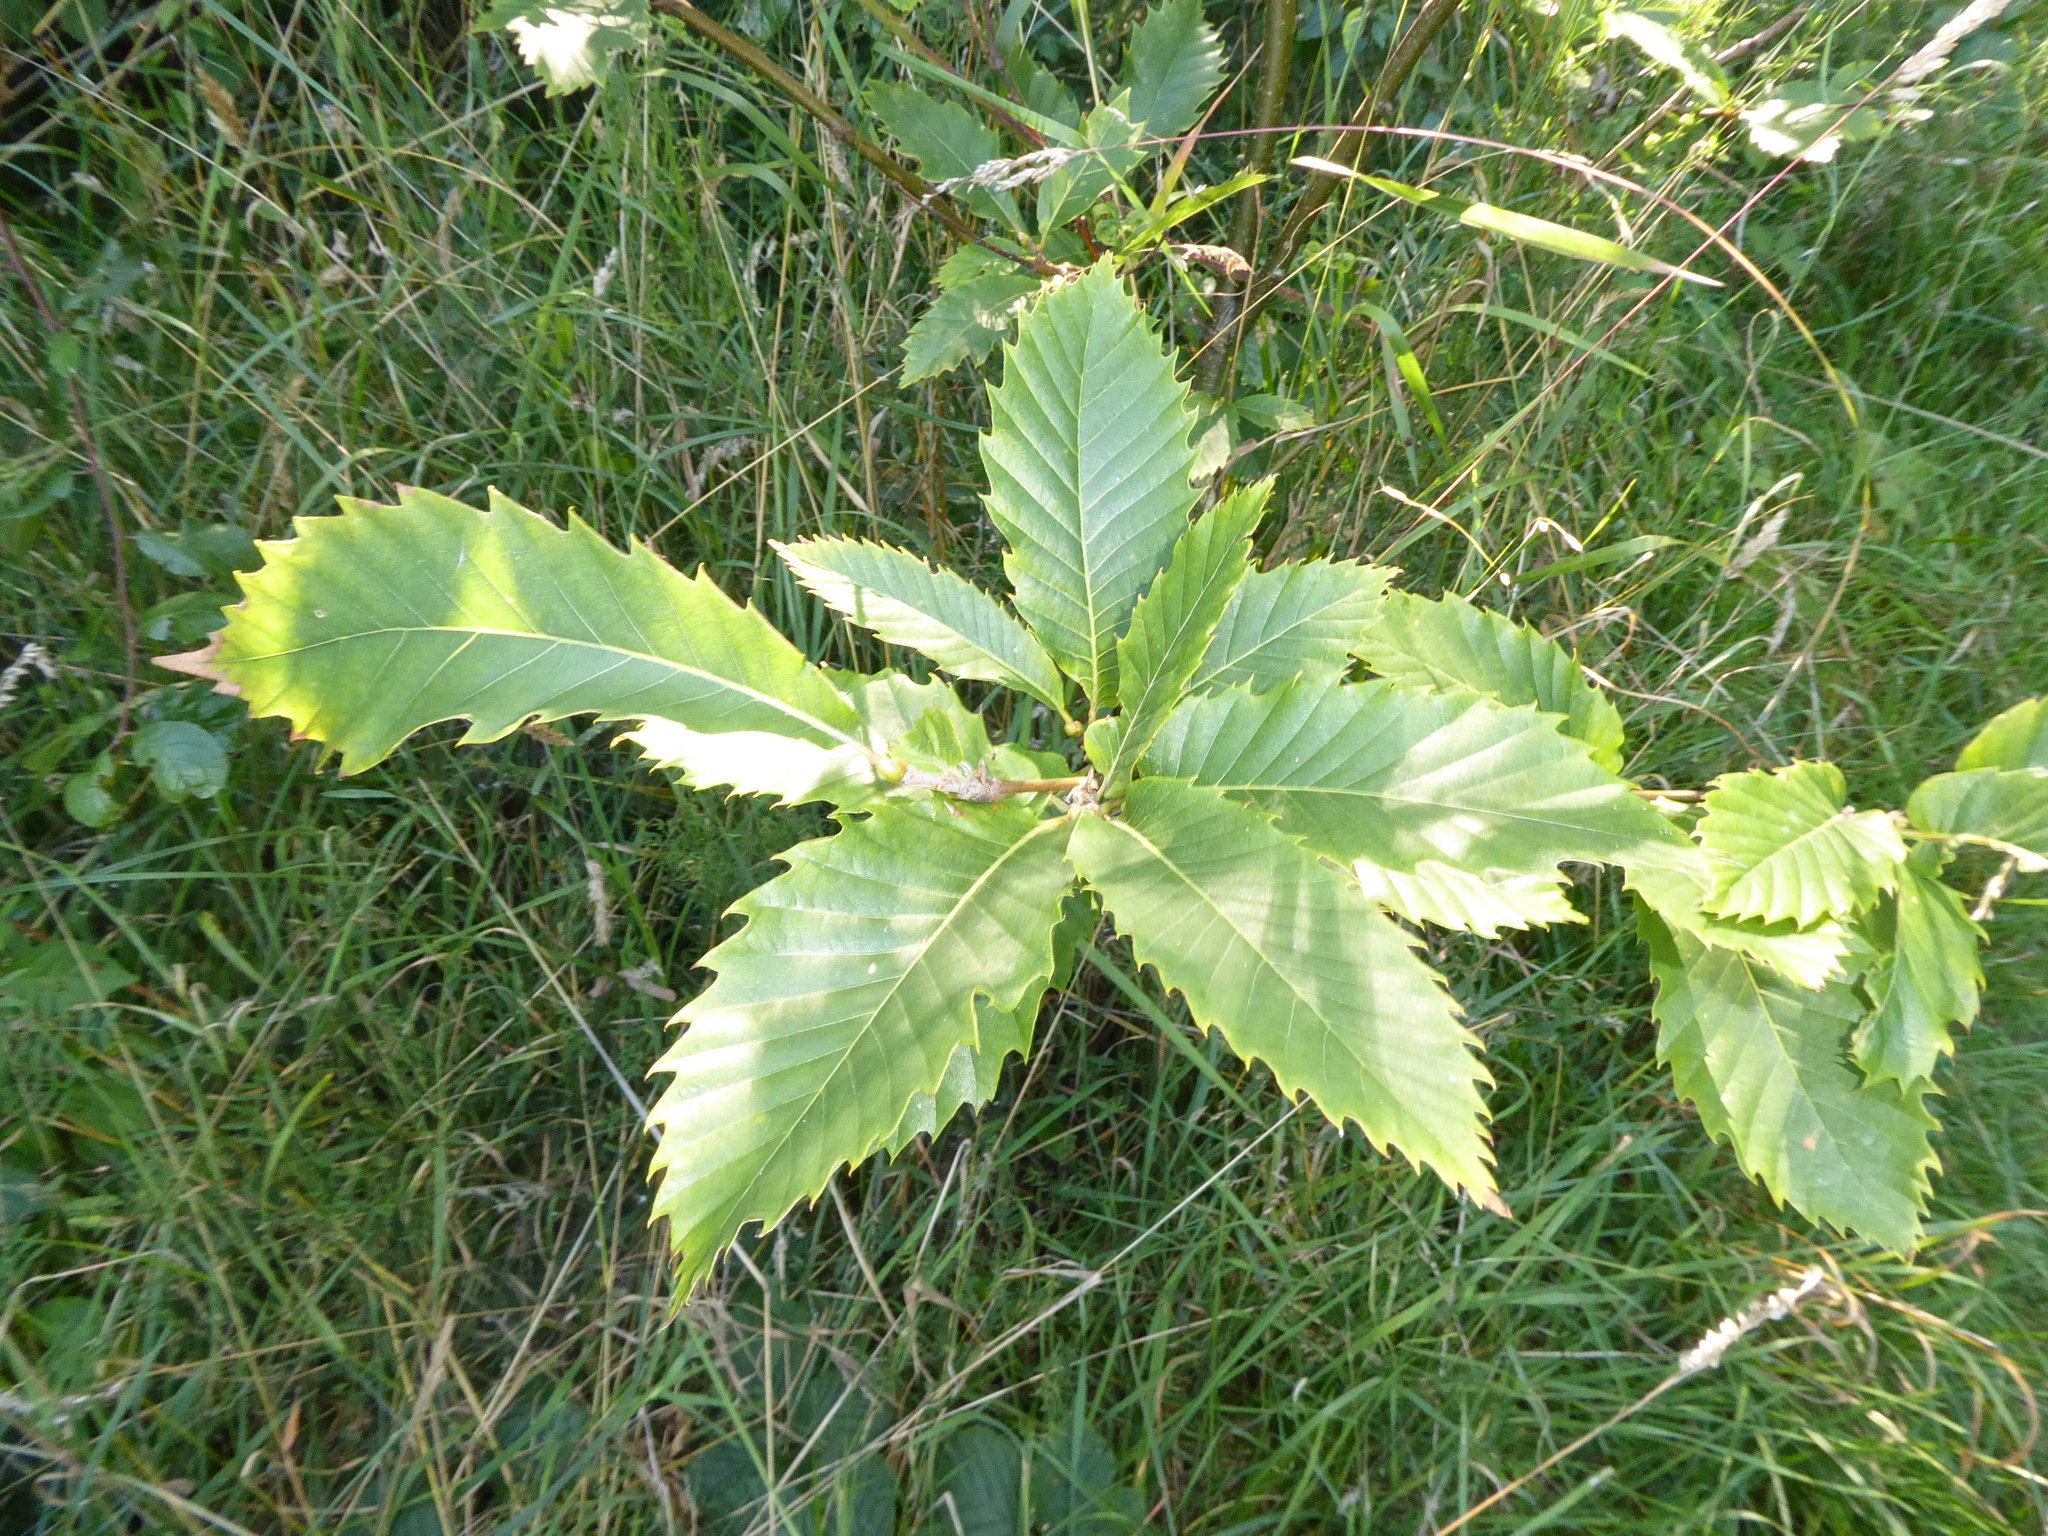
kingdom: Plantae
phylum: Tracheophyta
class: Magnoliopsida
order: Fagales
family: Fagaceae
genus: Castanea
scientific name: Castanea sativa
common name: Sweet chestnut
